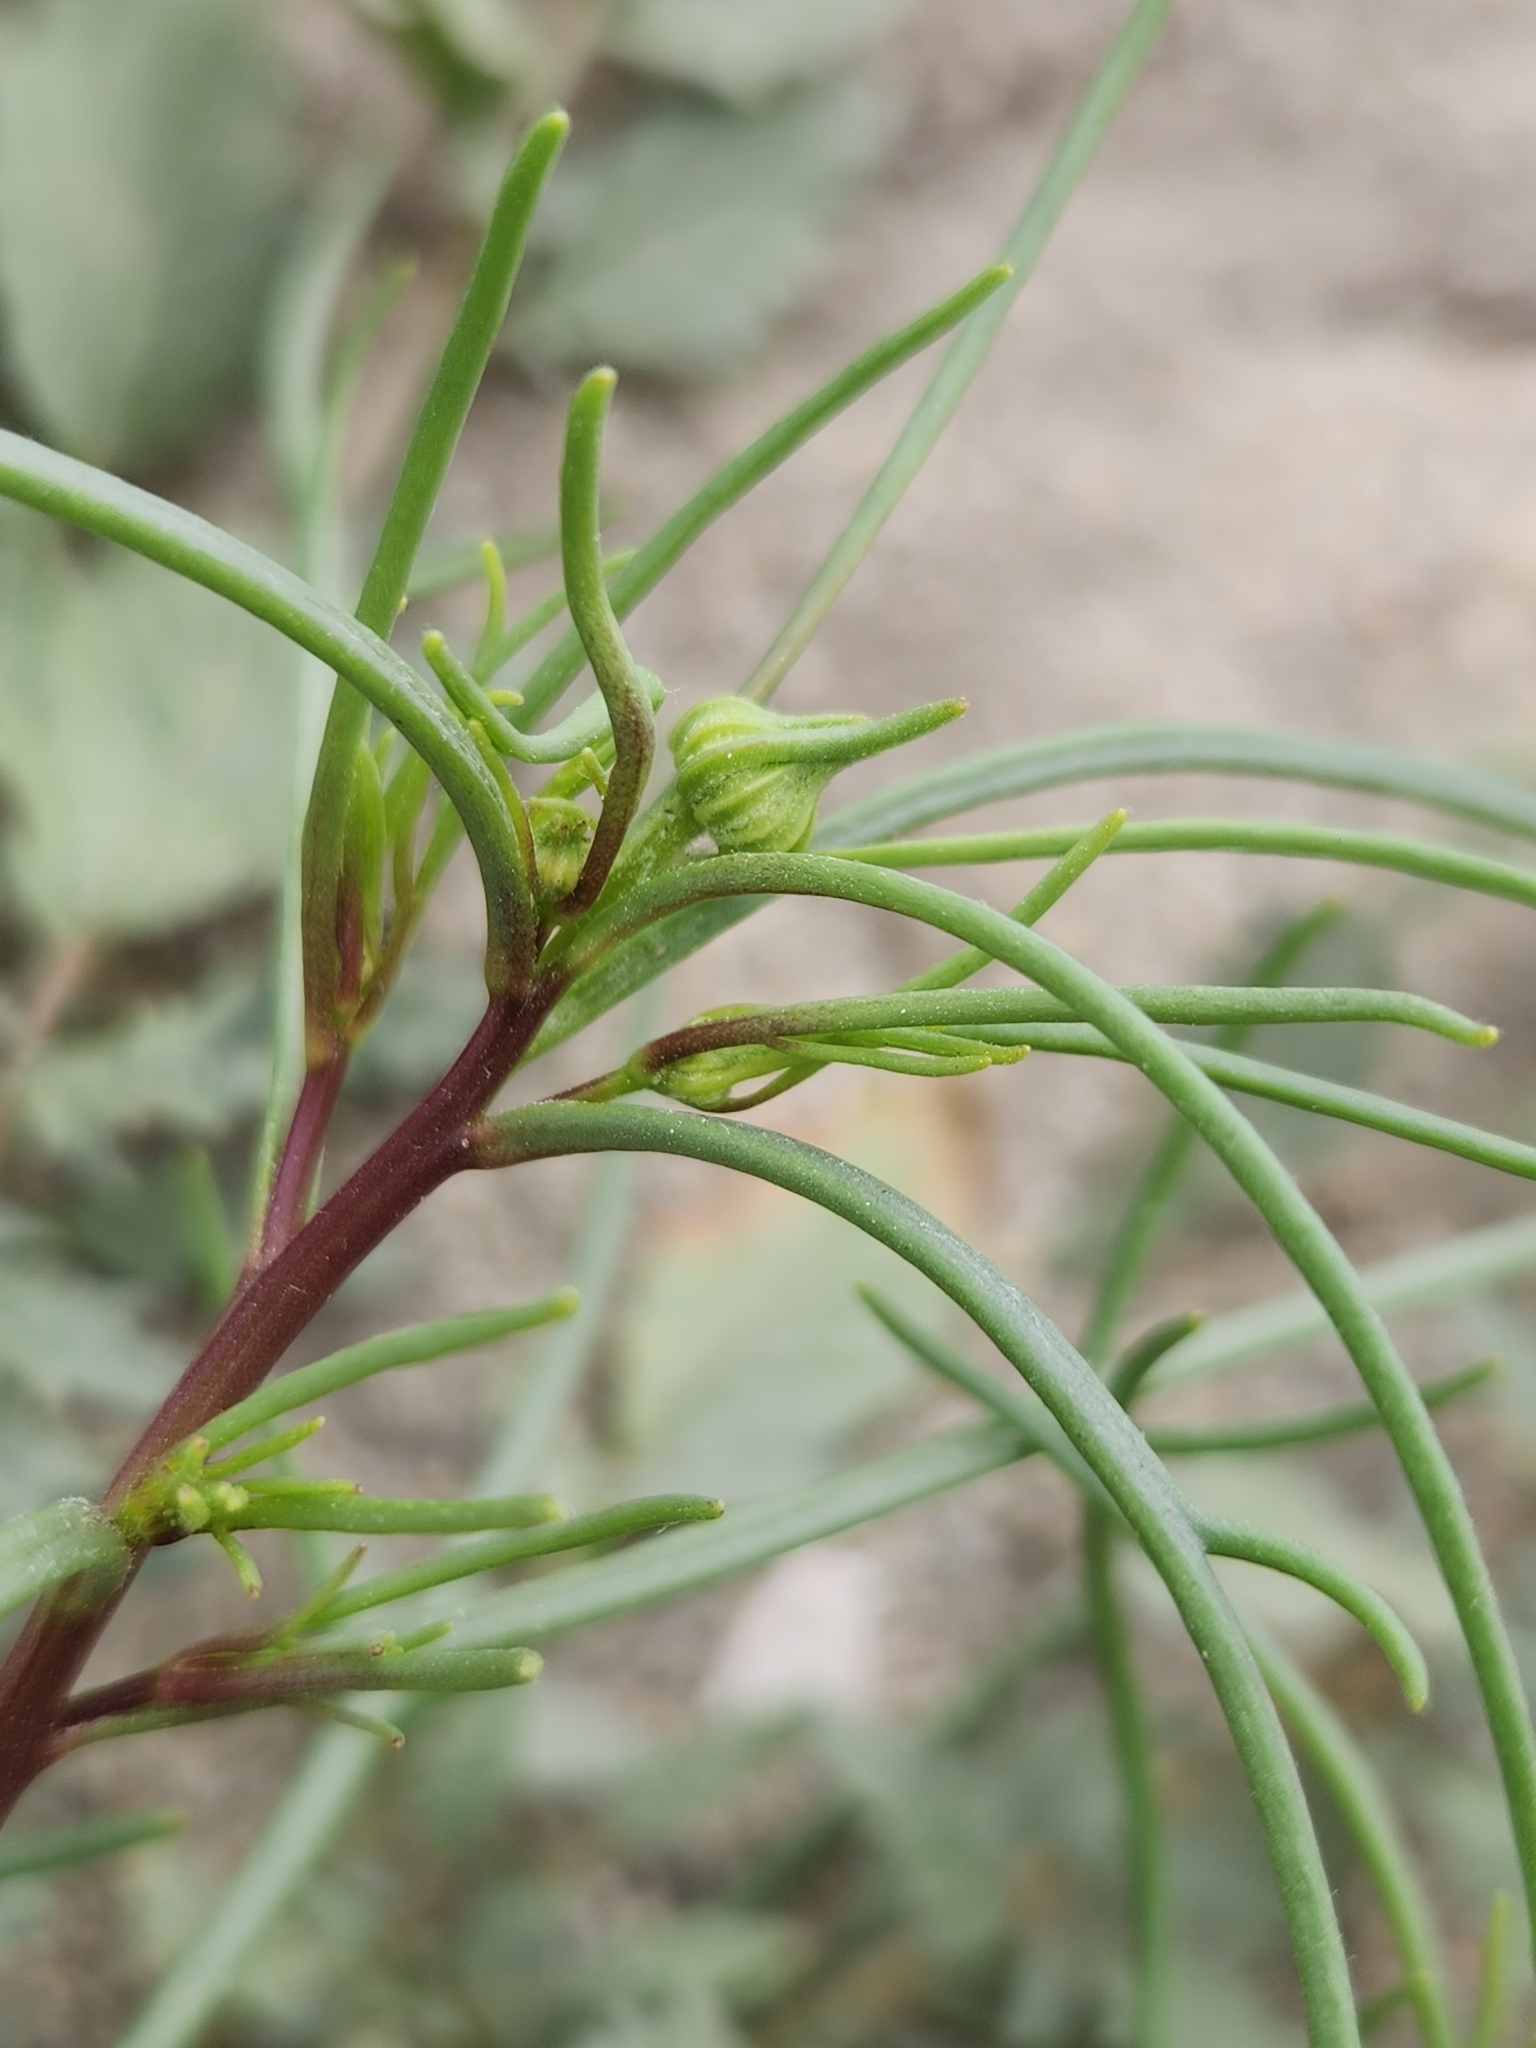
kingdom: Plantae
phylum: Tracheophyta
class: Magnoliopsida
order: Asterales
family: Asteraceae
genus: Chaenactis
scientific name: Chaenactis fremontii
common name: Fremont pincushion
